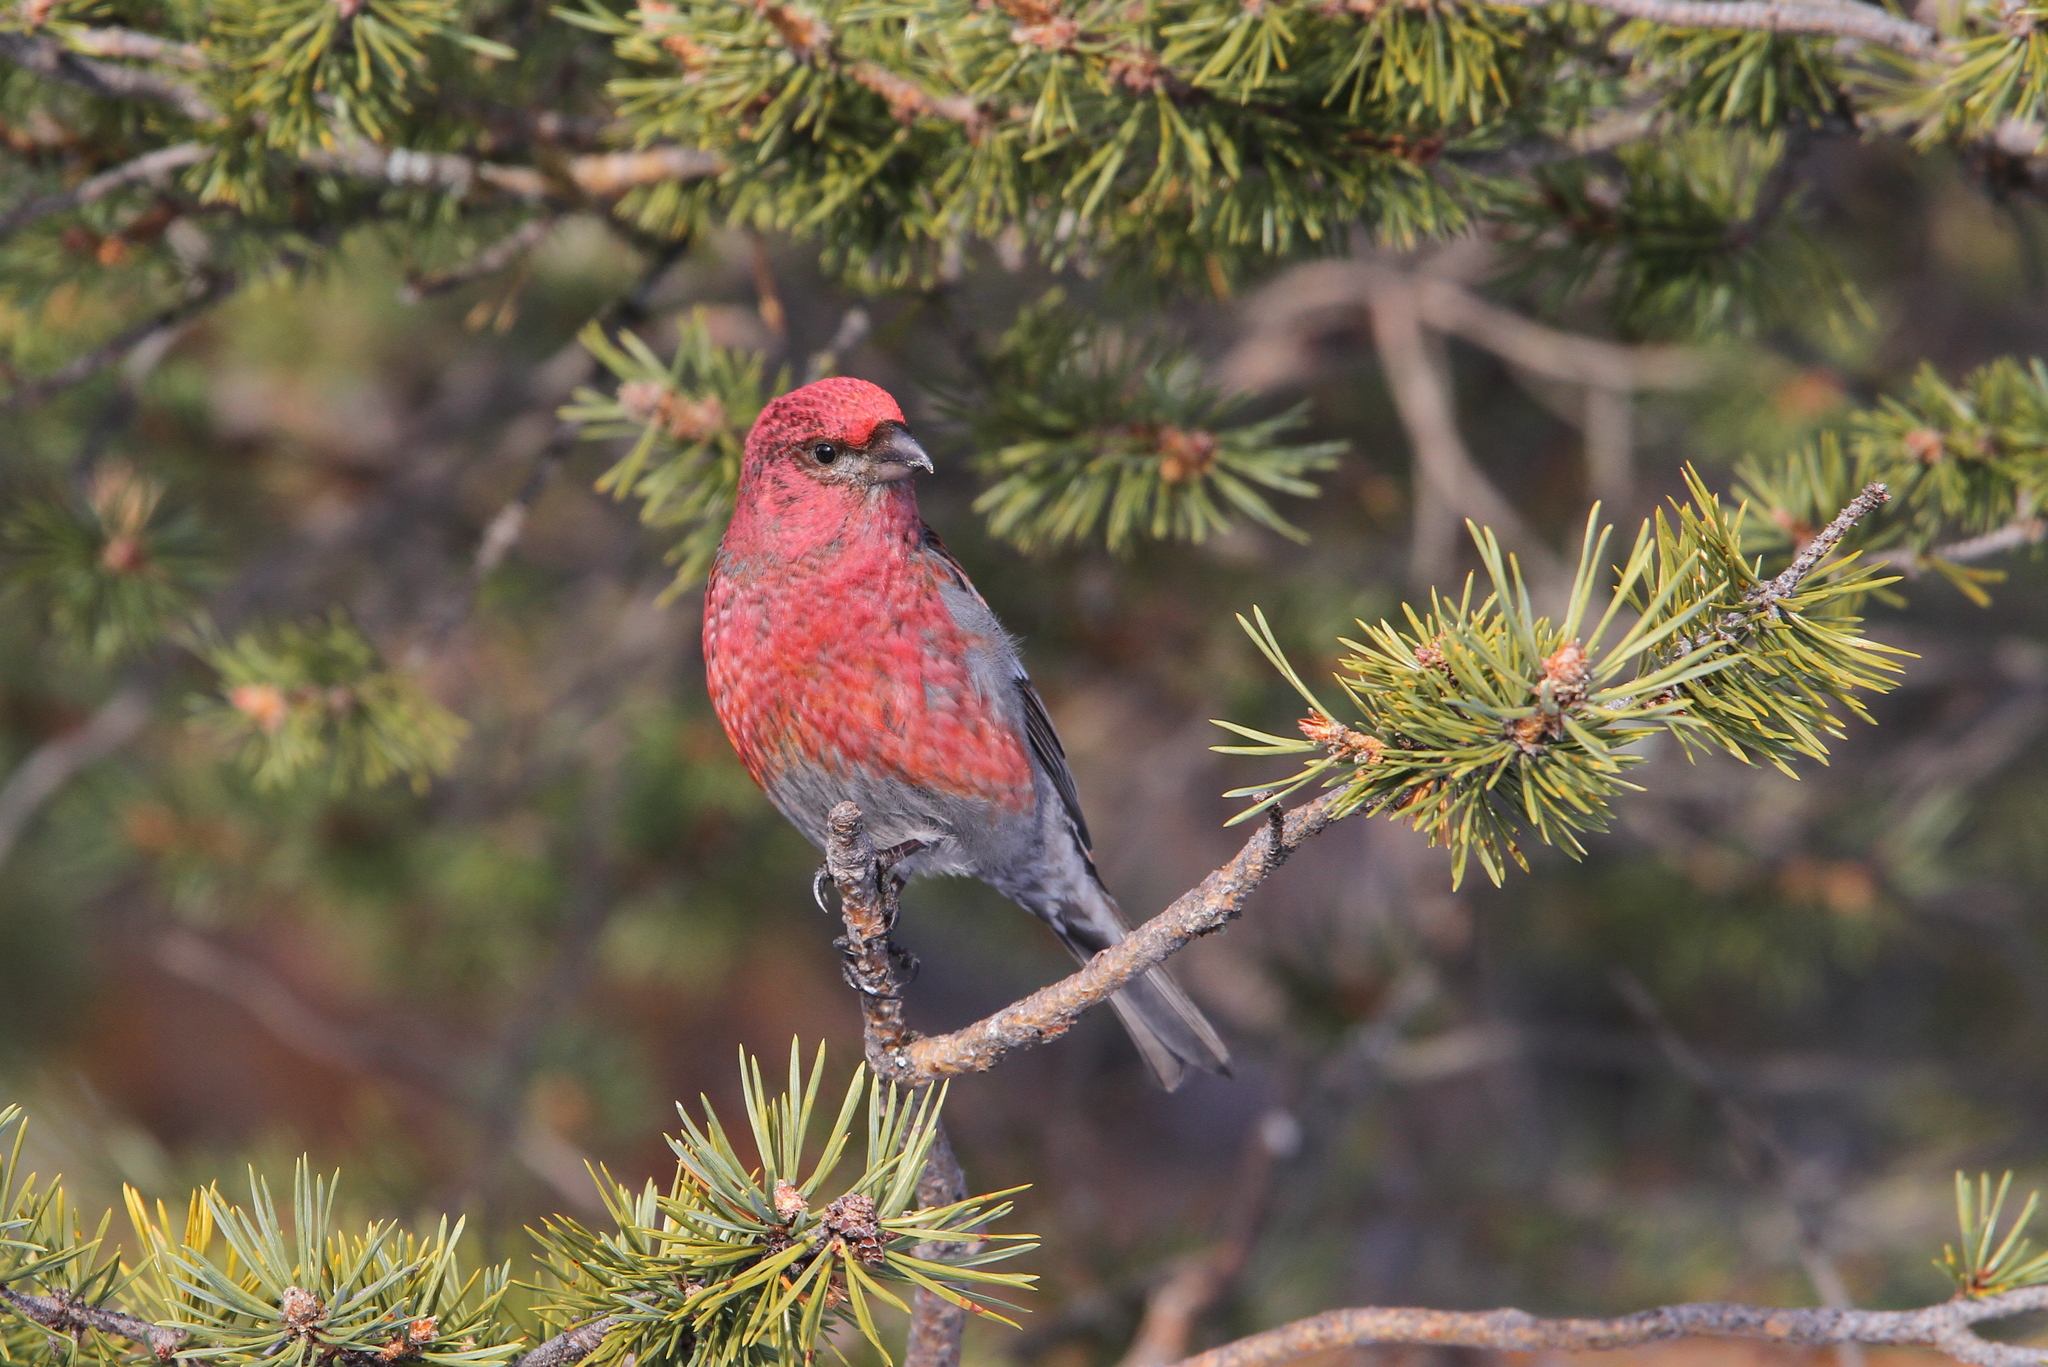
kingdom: Animalia
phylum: Chordata
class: Aves
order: Passeriformes
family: Fringillidae
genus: Pinicola
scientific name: Pinicola enucleator
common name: Pine grosbeak
